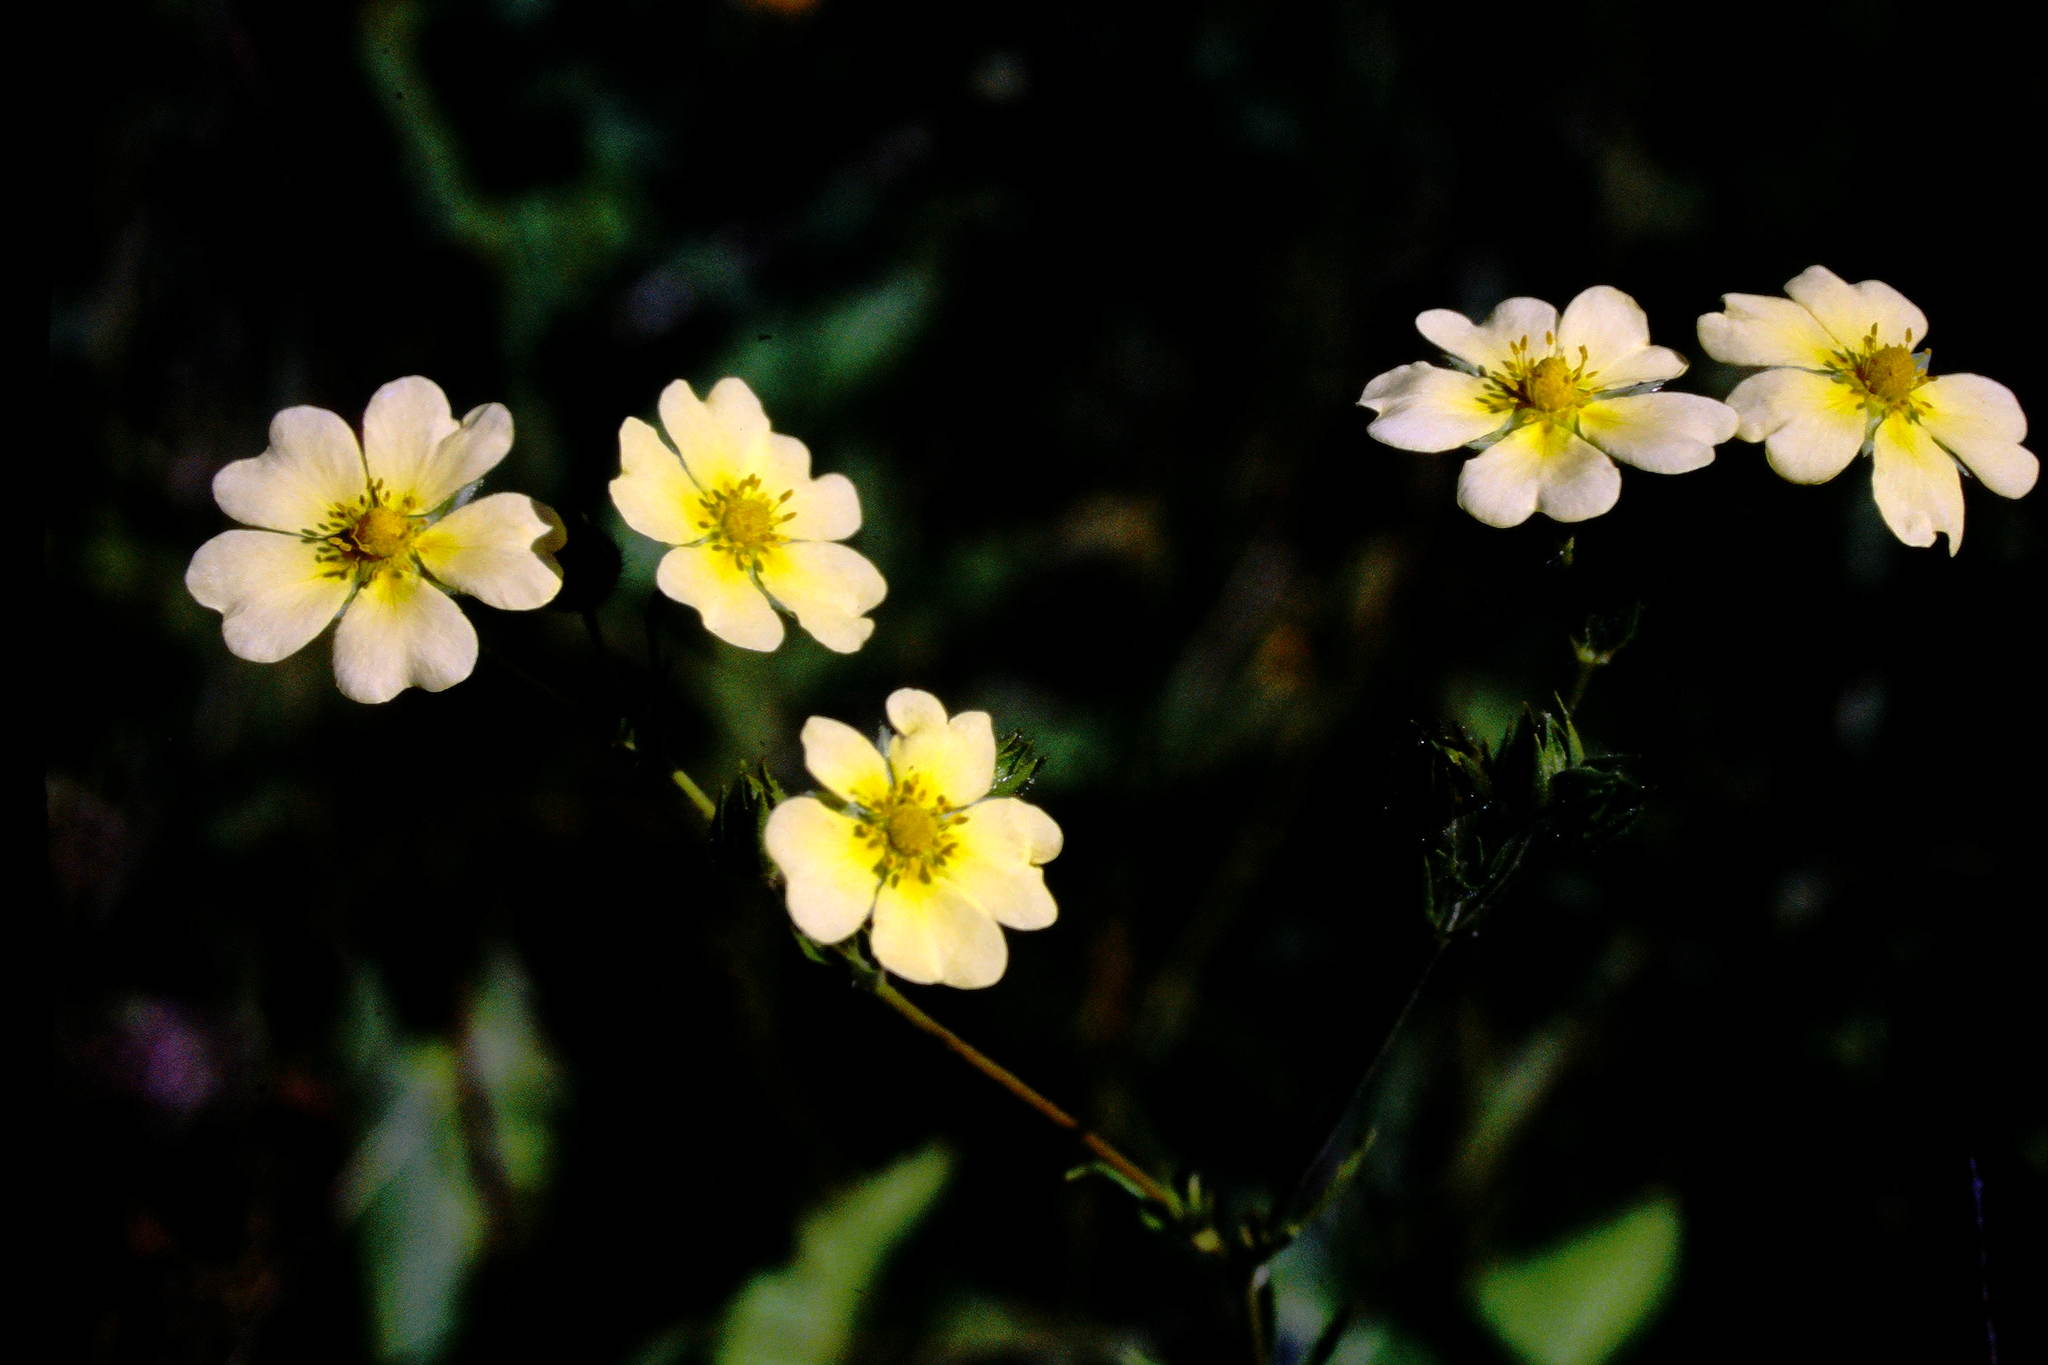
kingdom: Plantae
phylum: Tracheophyta
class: Magnoliopsida
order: Rosales
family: Rosaceae
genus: Potentilla
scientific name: Potentilla recta
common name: Sulphur cinquefoil
